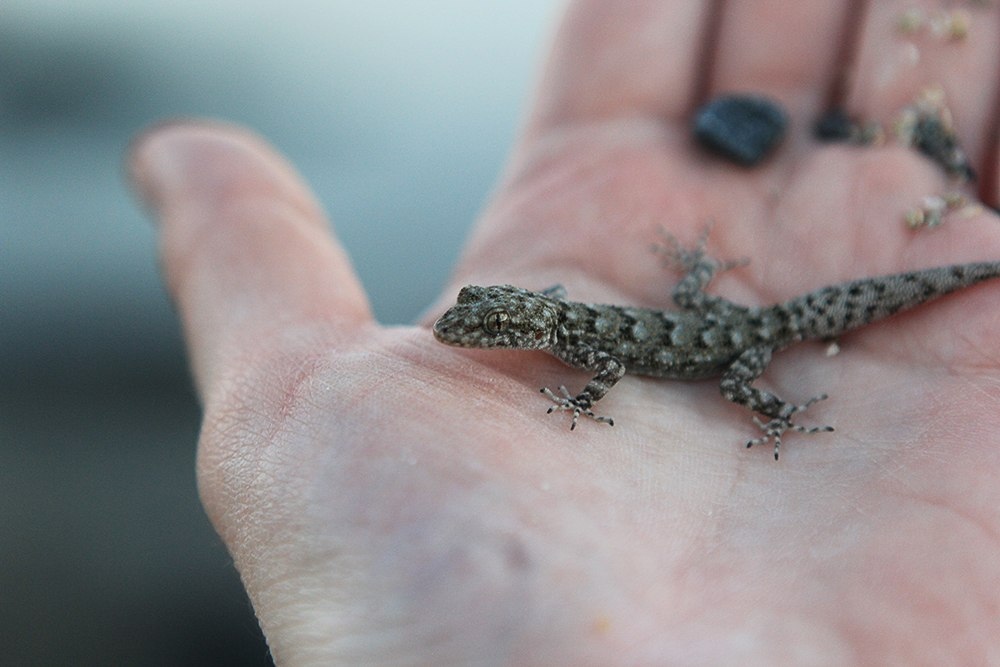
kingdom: Animalia
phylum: Chordata
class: Squamata
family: Gekkonidae
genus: Mediodactylus
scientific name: Mediodactylus kotschyi
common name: Kotschy's gecko
